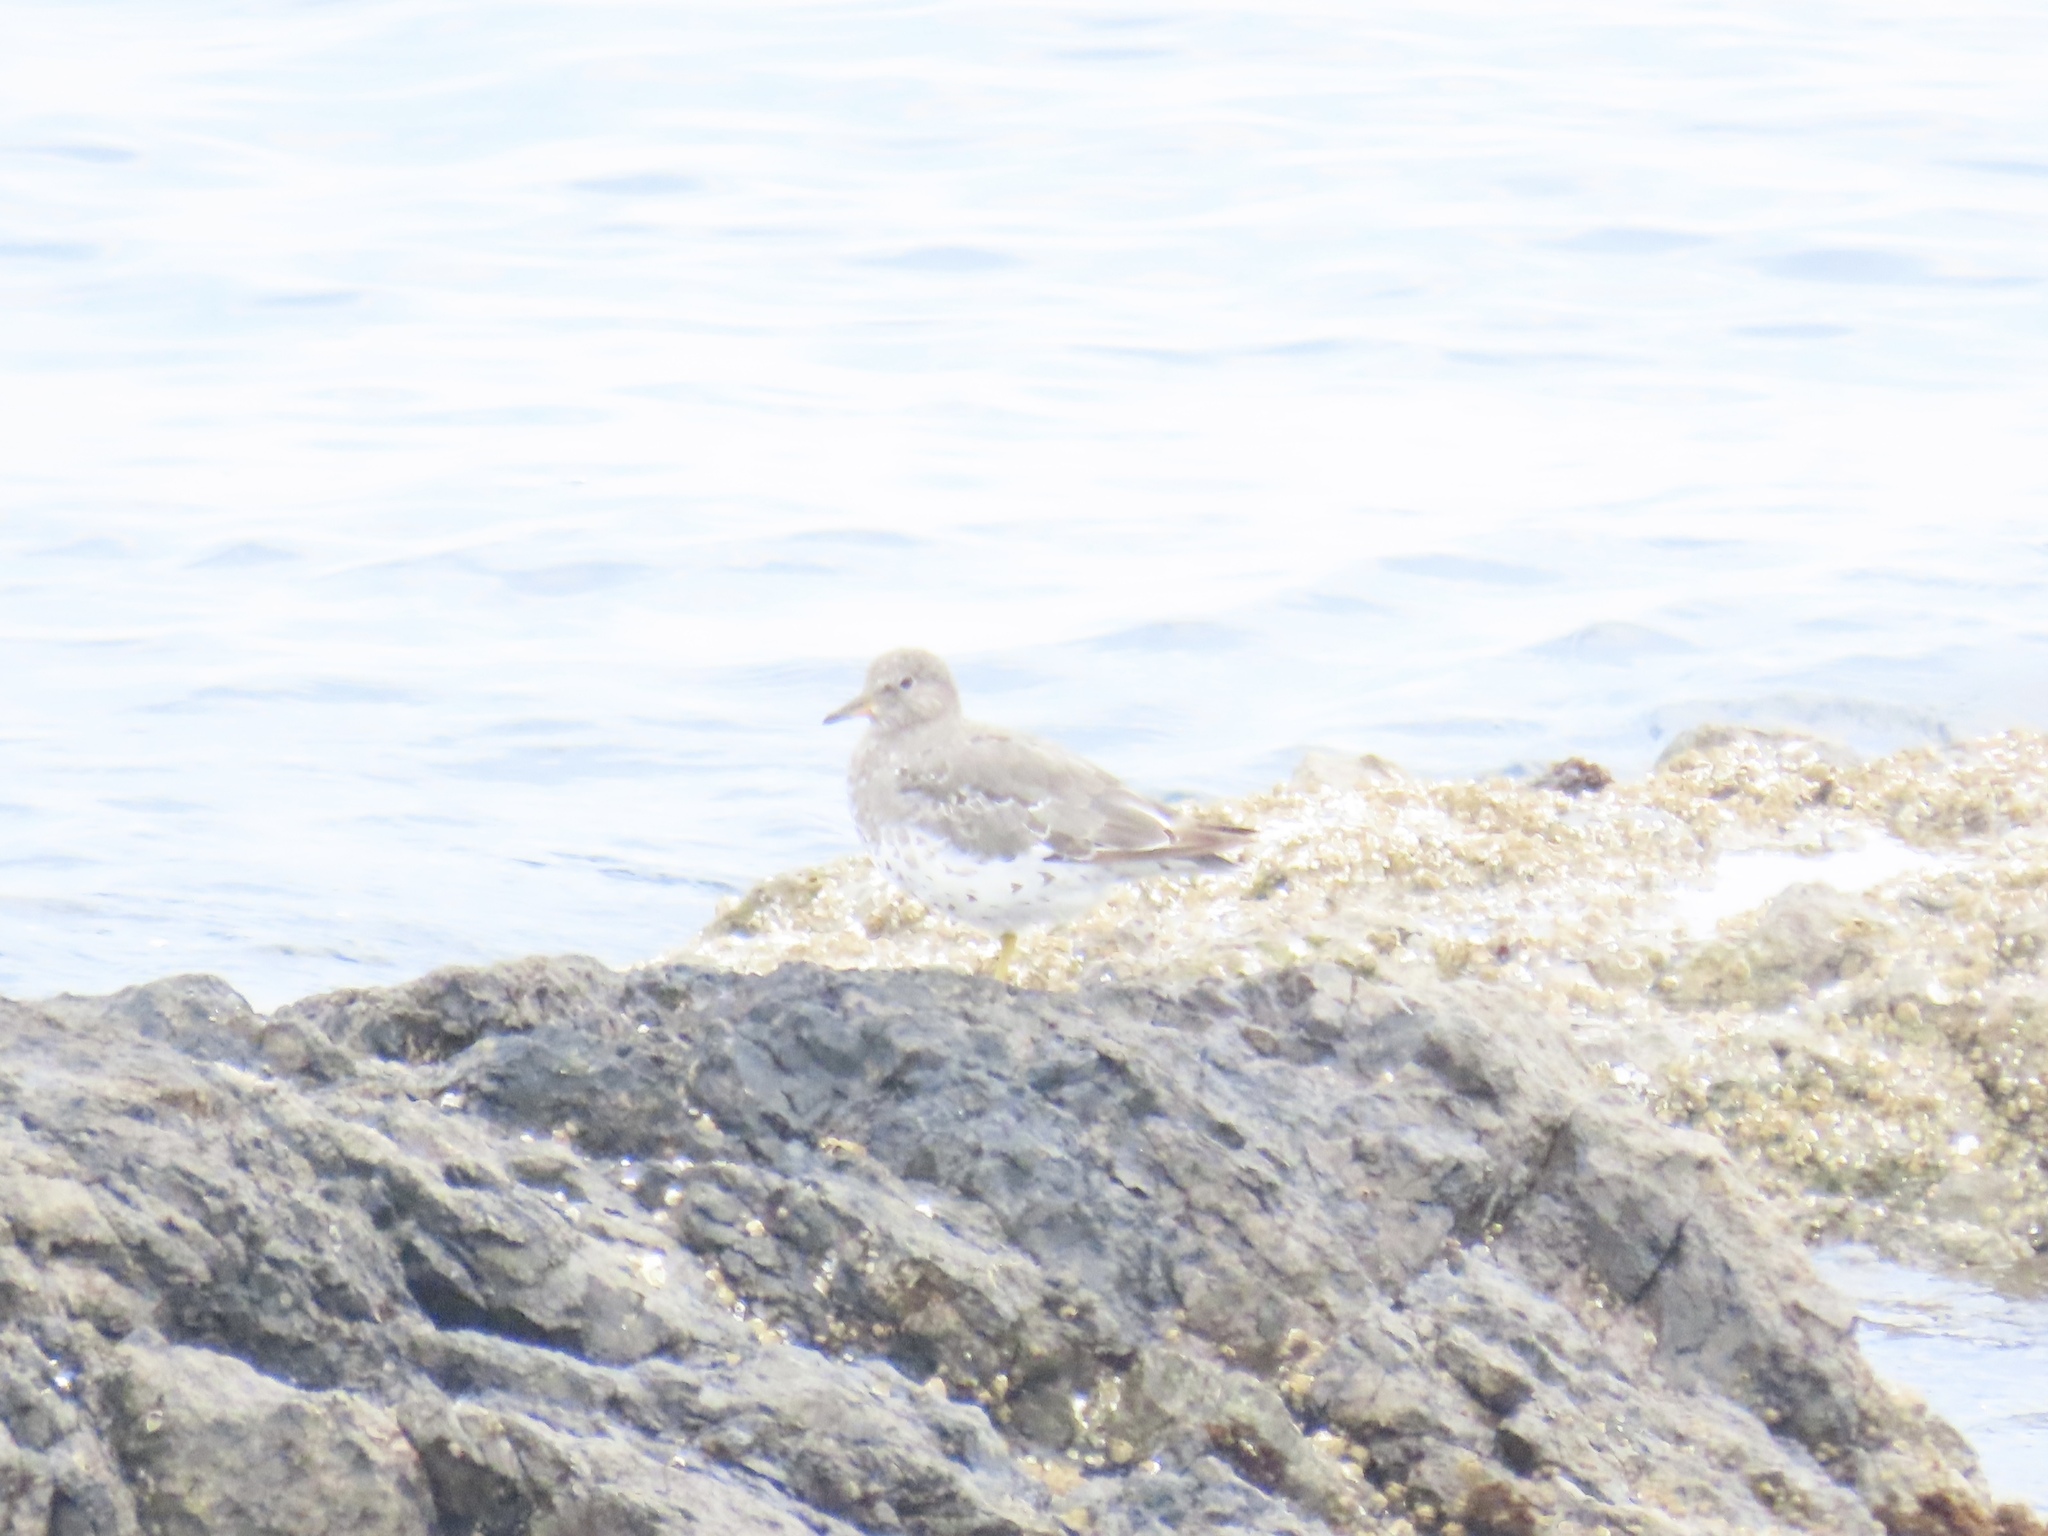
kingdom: Animalia
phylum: Chordata
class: Aves
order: Charadriiformes
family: Scolopacidae
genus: Calidris
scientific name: Calidris virgata
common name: Surfbird
